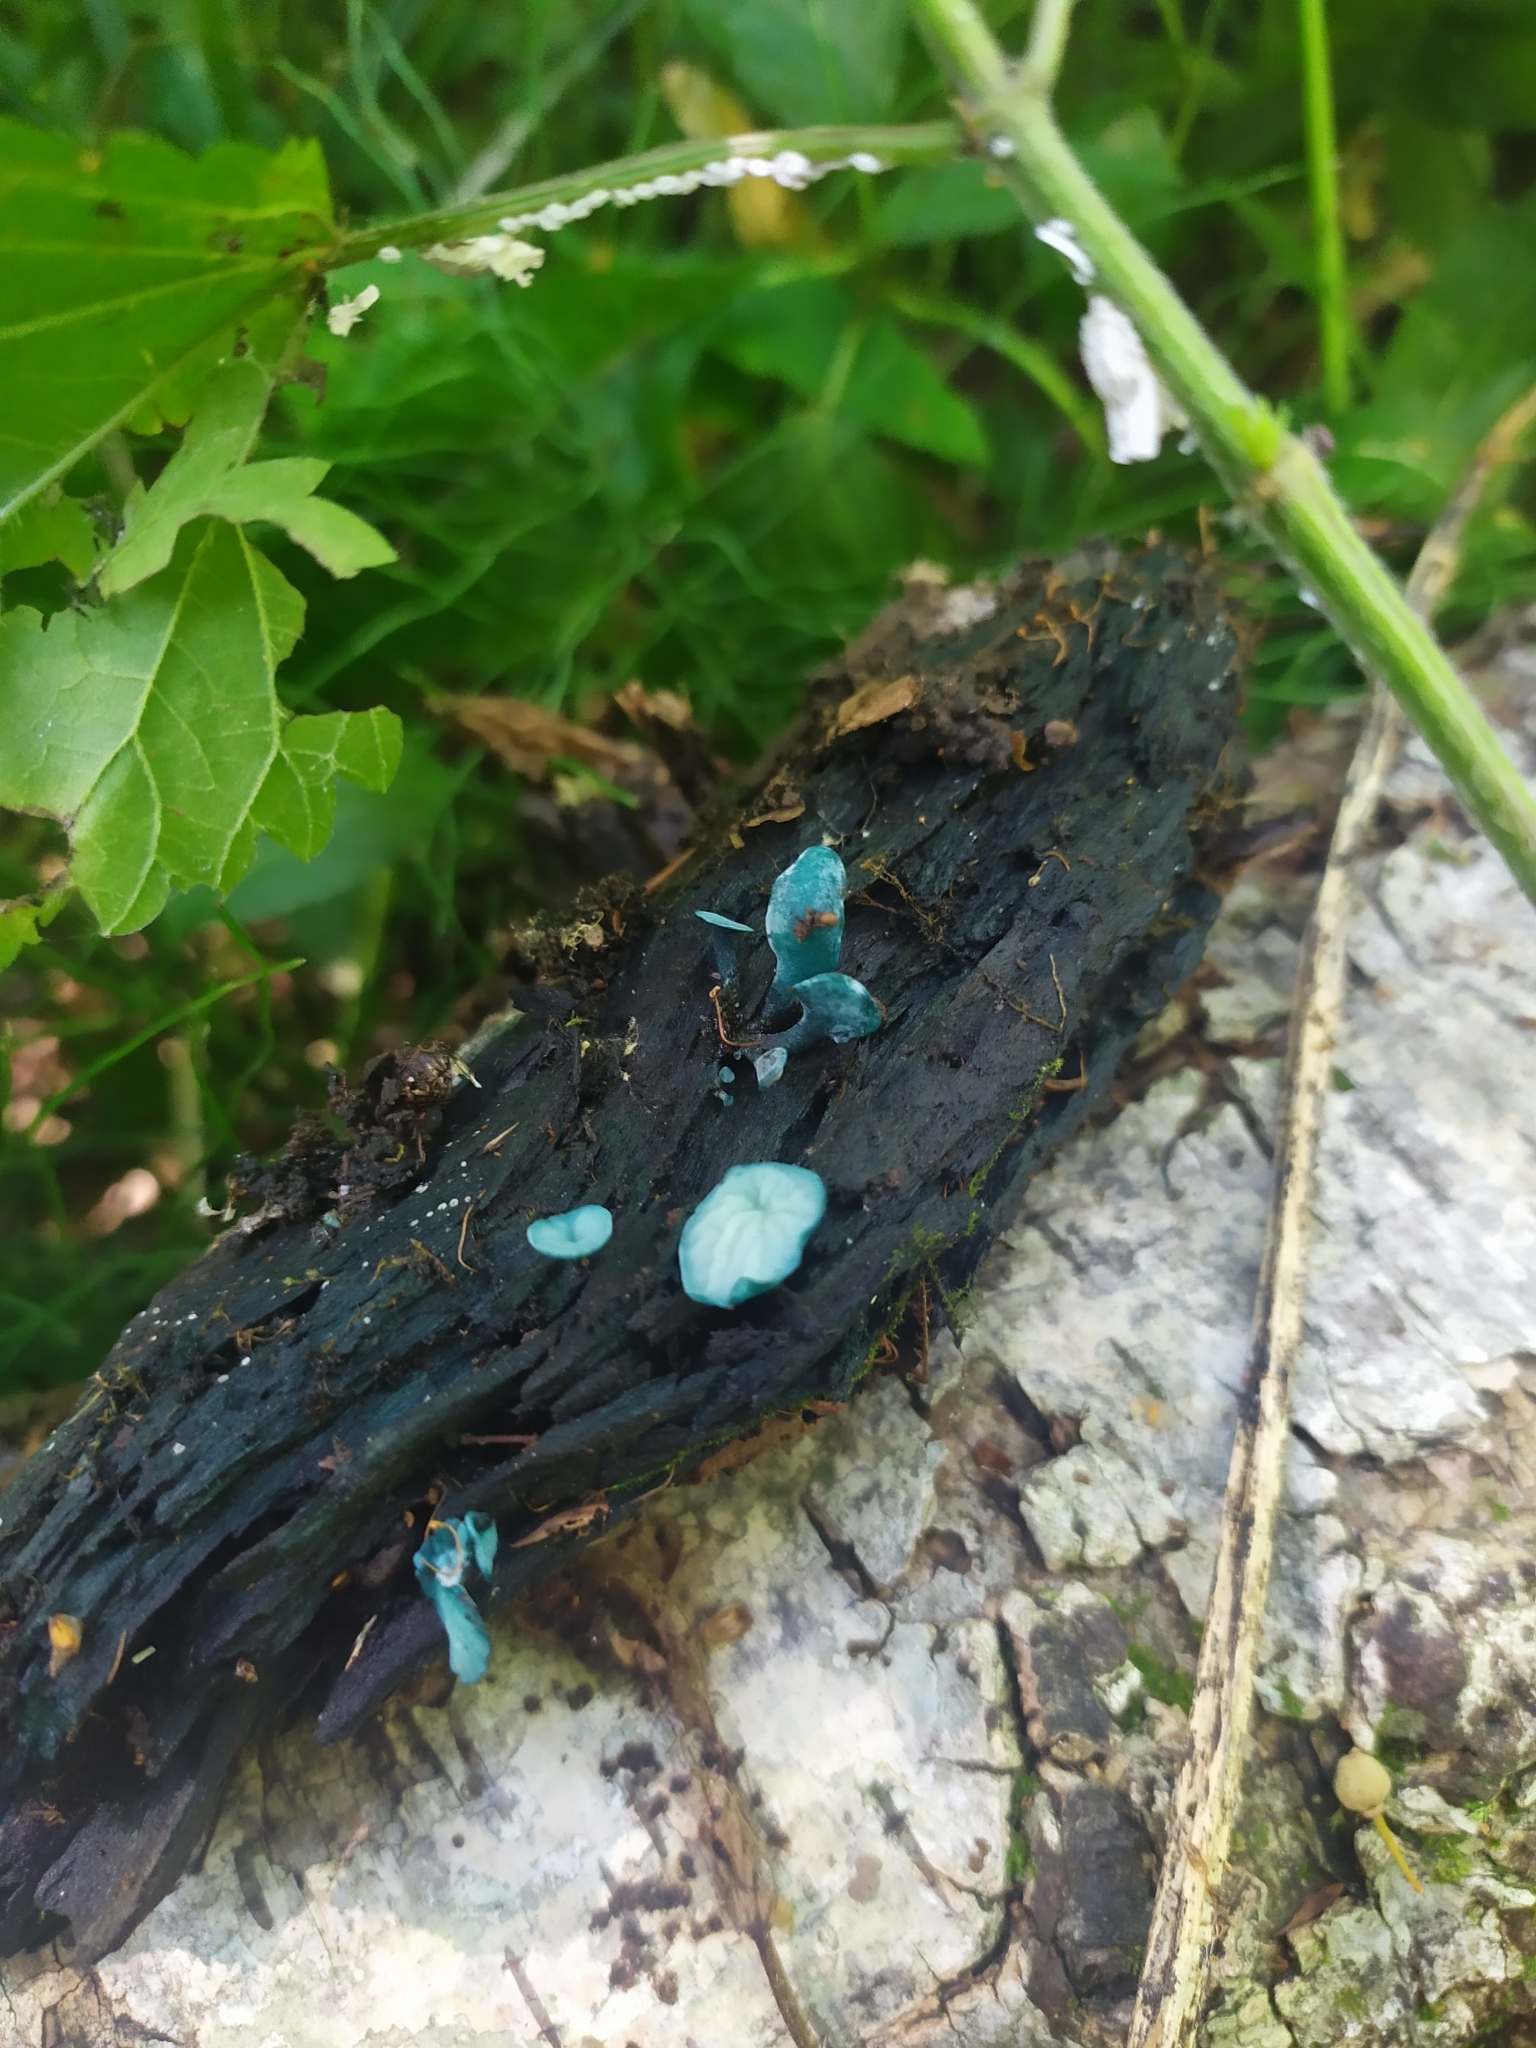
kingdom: Fungi
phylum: Ascomycota
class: Leotiomycetes
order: Helotiales
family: Chlorociboriaceae
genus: Chlorociboria
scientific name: Chlorociboria aeruginascens
